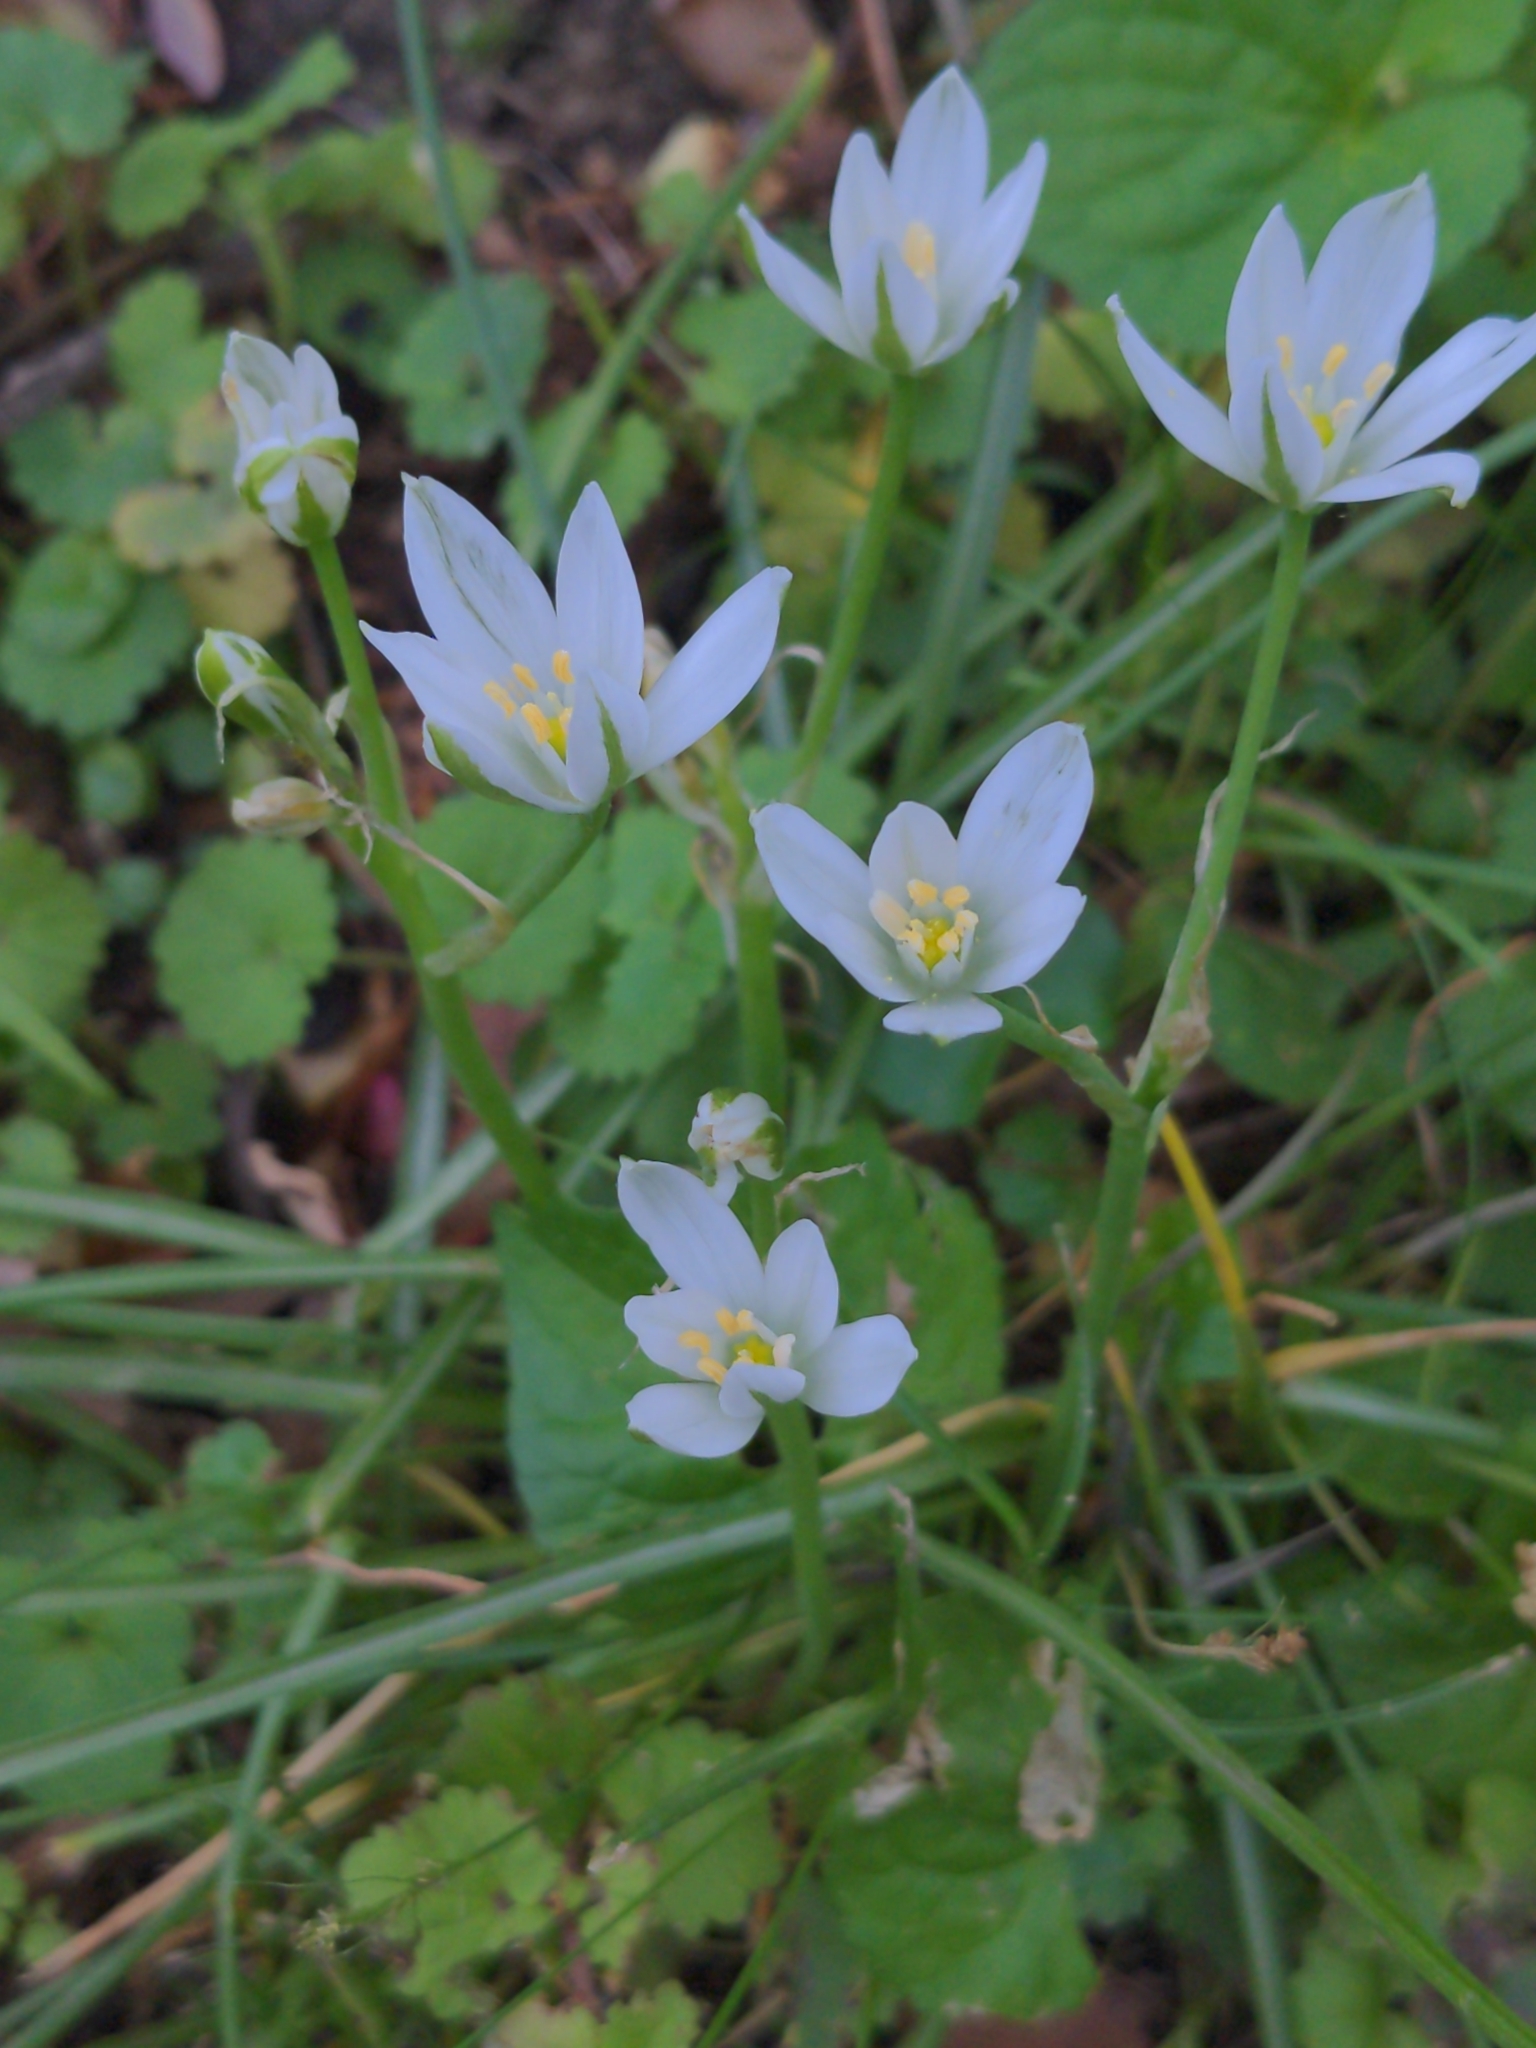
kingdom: Plantae
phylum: Tracheophyta
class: Liliopsida
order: Asparagales
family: Asparagaceae
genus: Ornithogalum
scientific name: Ornithogalum umbellatum
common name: Garden star-of-bethlehem
